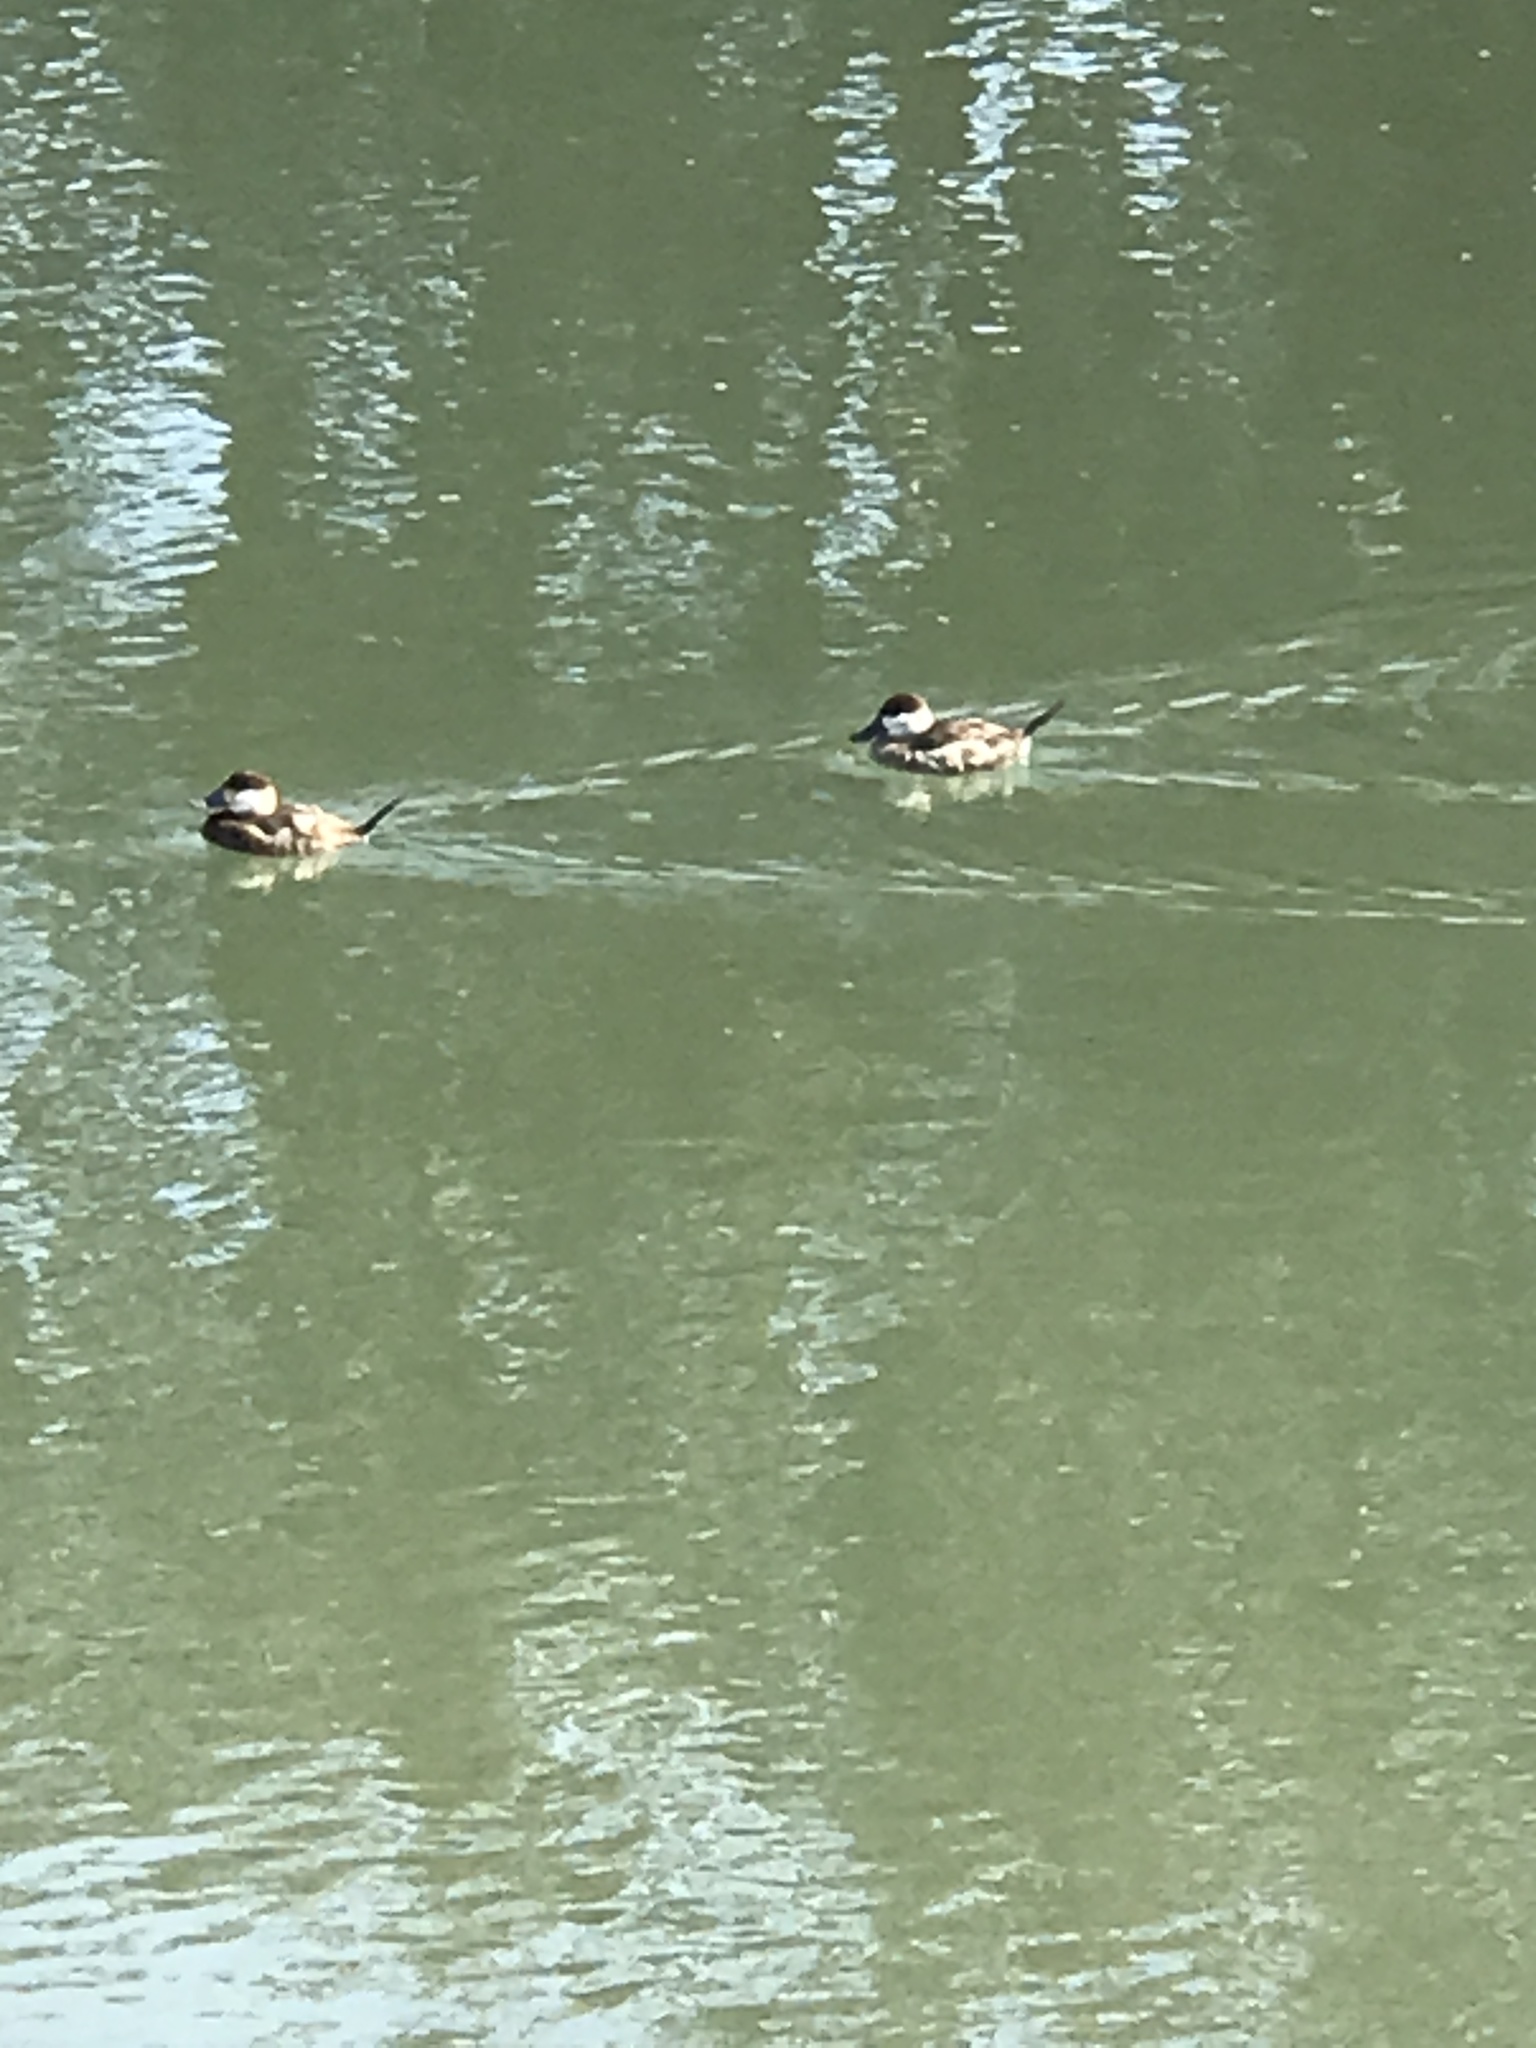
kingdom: Animalia
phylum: Chordata
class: Aves
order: Anseriformes
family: Anatidae
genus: Oxyura
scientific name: Oxyura jamaicensis
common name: Ruddy duck
